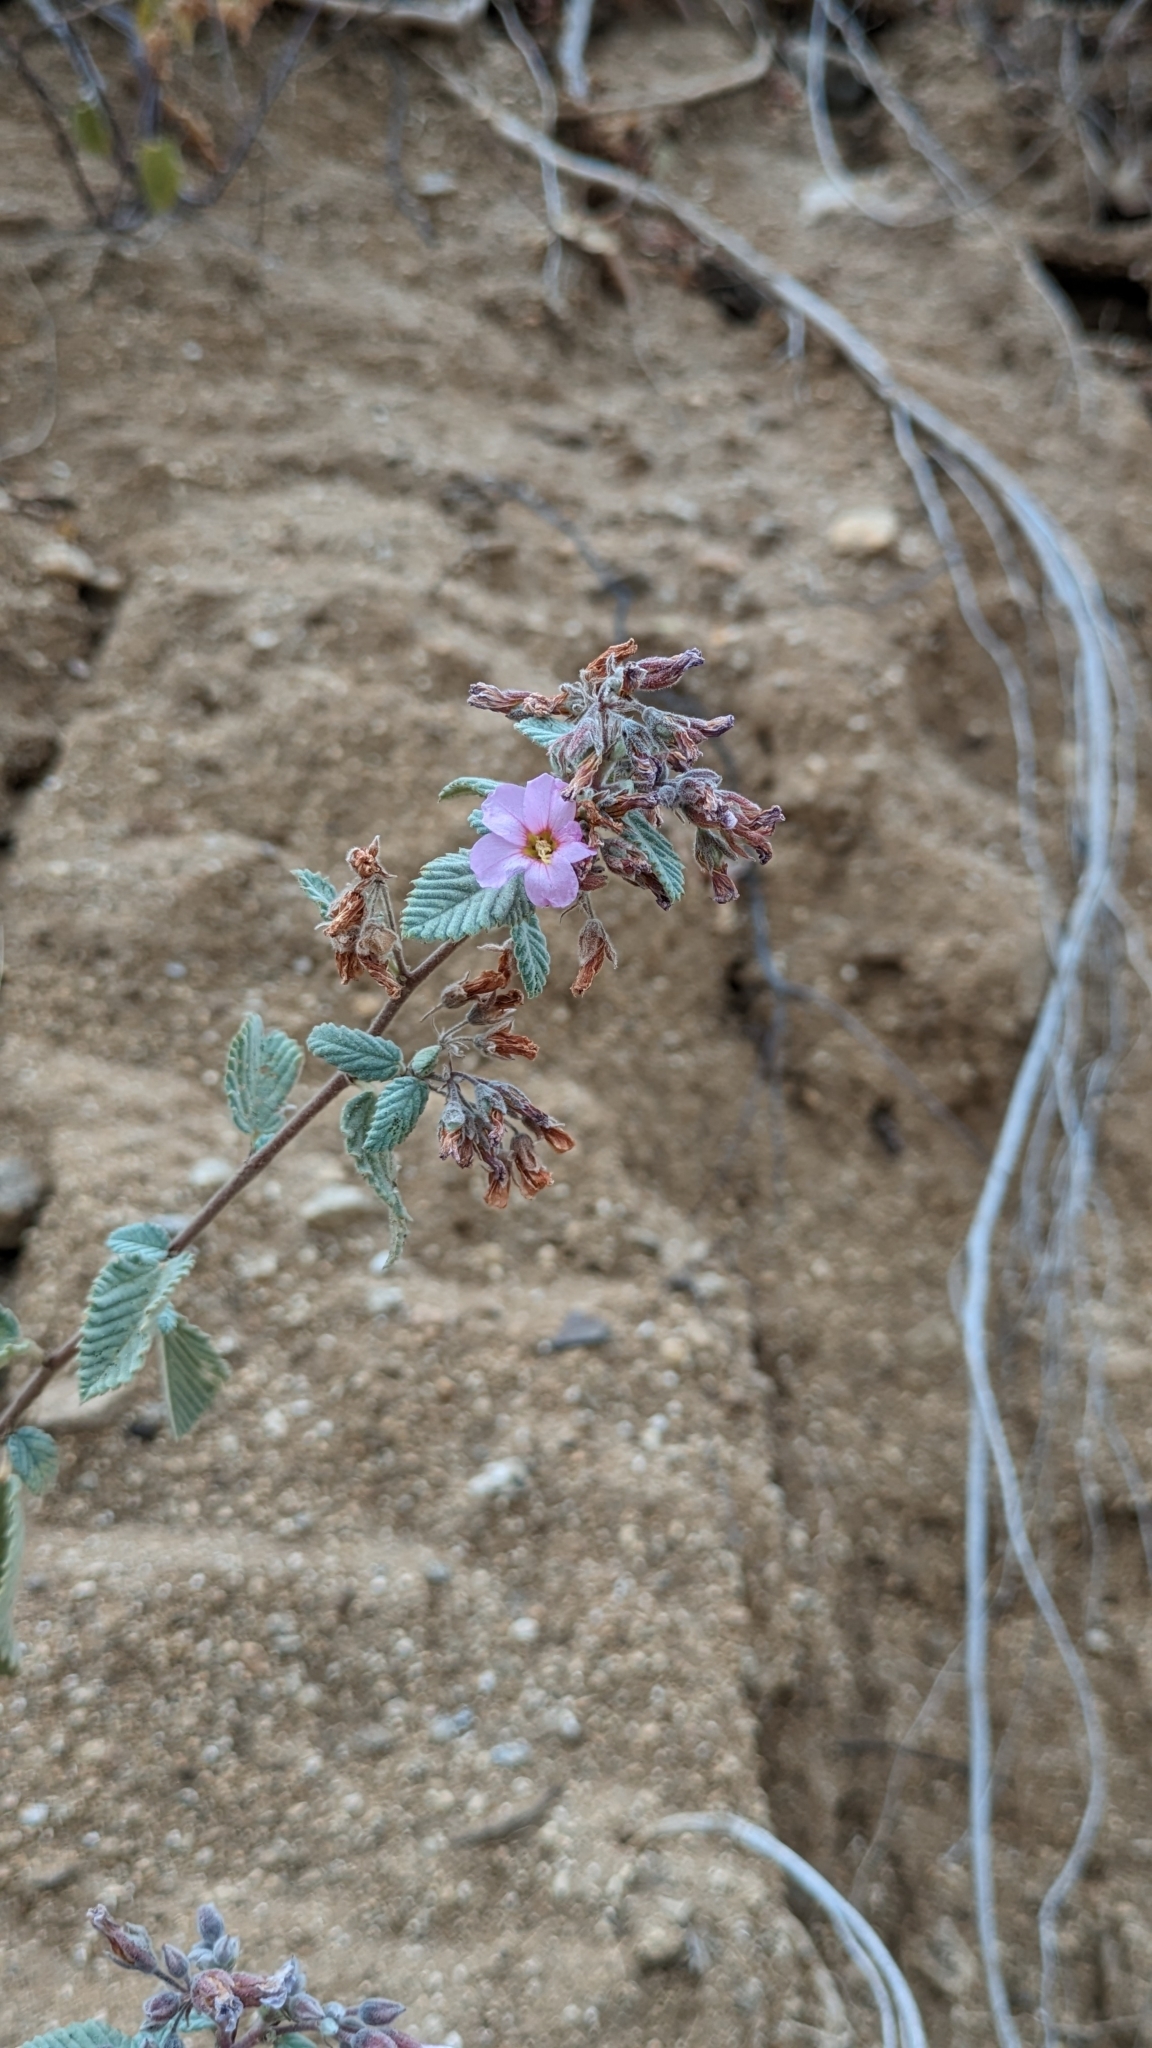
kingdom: Plantae
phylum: Tracheophyta
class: Magnoliopsida
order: Malvales
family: Malvaceae
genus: Melochia
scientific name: Melochia tomentosa
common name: Black torch
